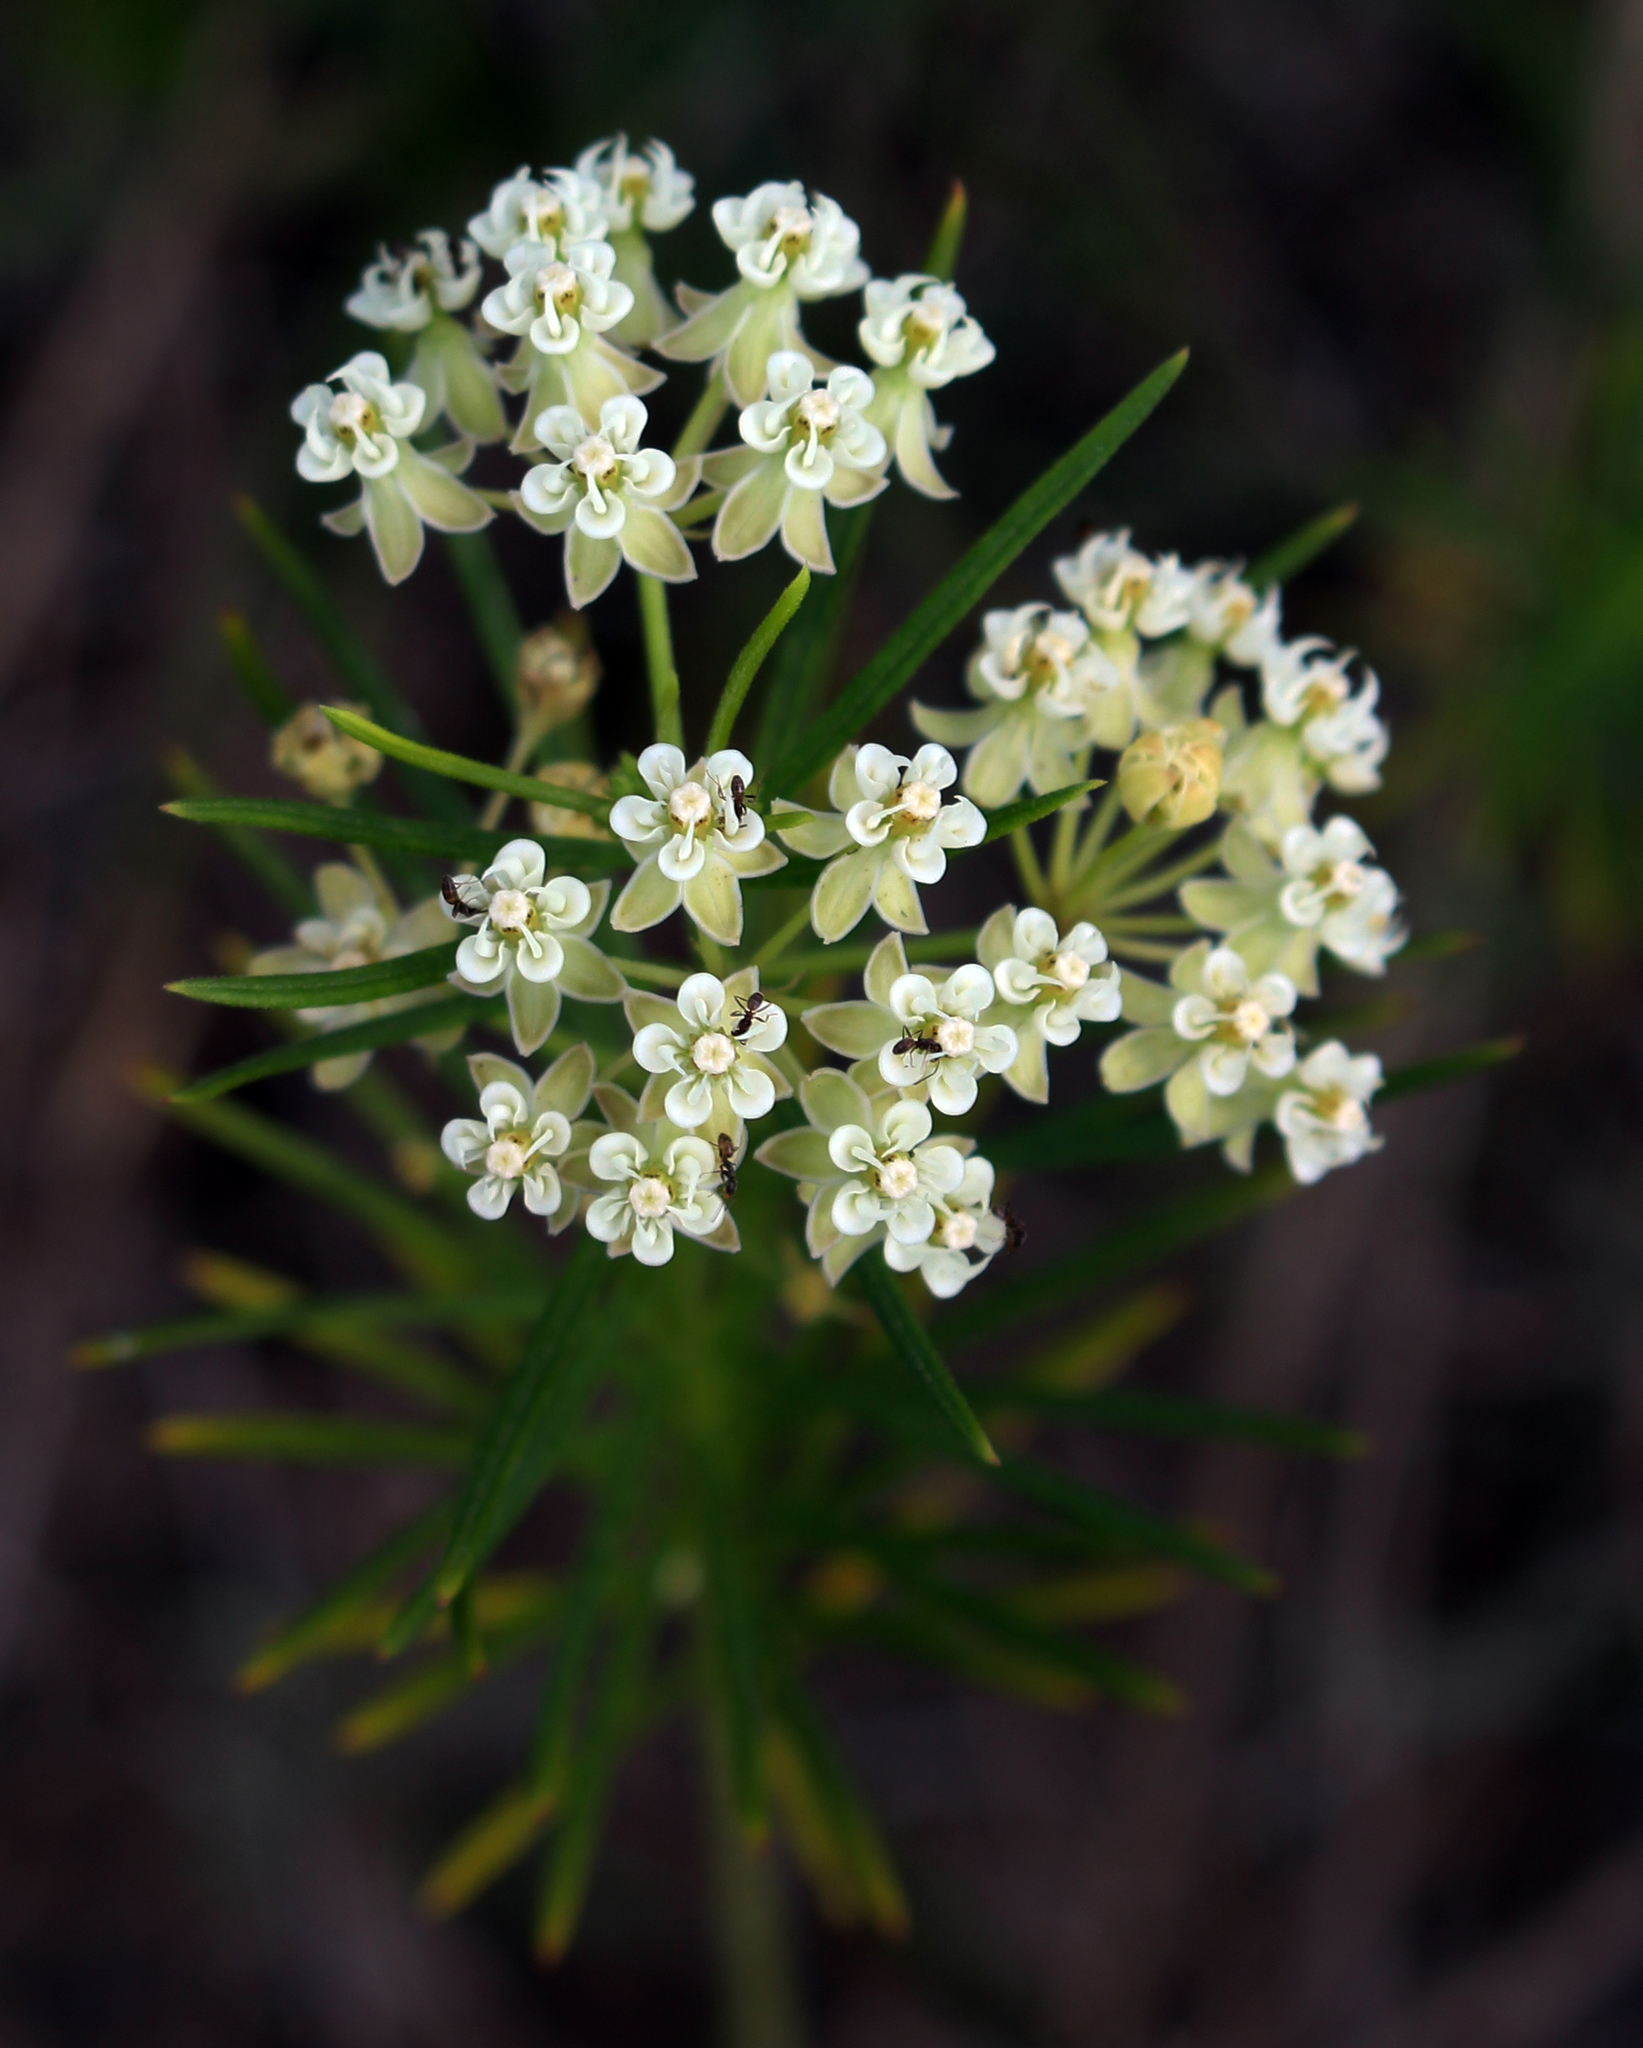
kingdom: Plantae
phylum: Tracheophyta
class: Magnoliopsida
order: Gentianales
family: Apocynaceae
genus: Asclepias
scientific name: Asclepias verticillata
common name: Eastern whorled milkweed
